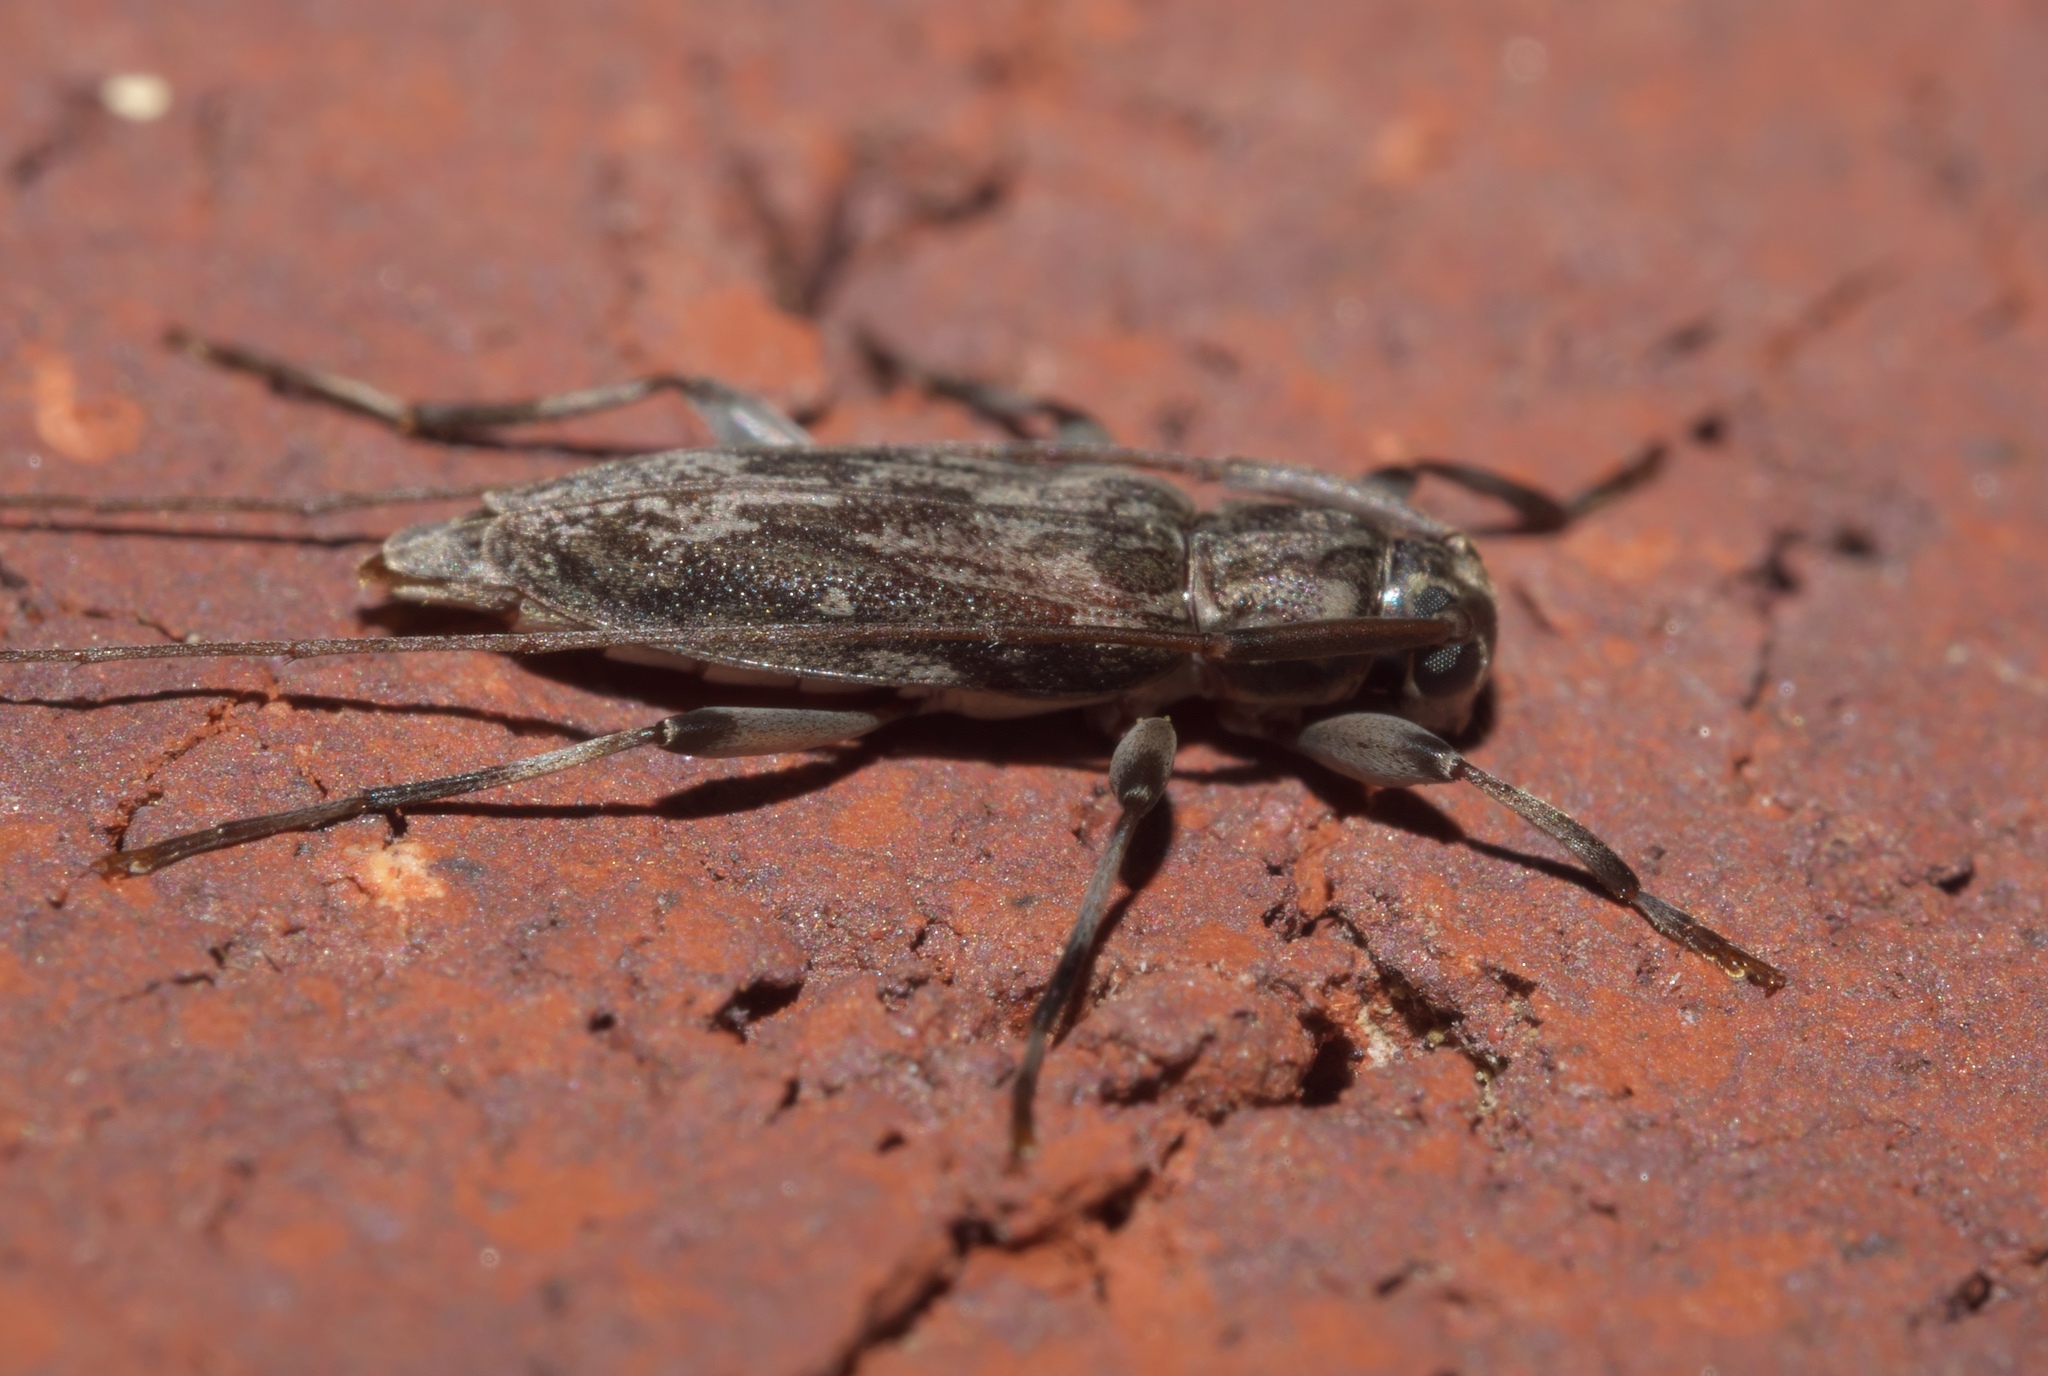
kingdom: Animalia
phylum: Arthropoda
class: Insecta
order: Coleoptera
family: Cerambycidae
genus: Lepturges
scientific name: Lepturges confluens
